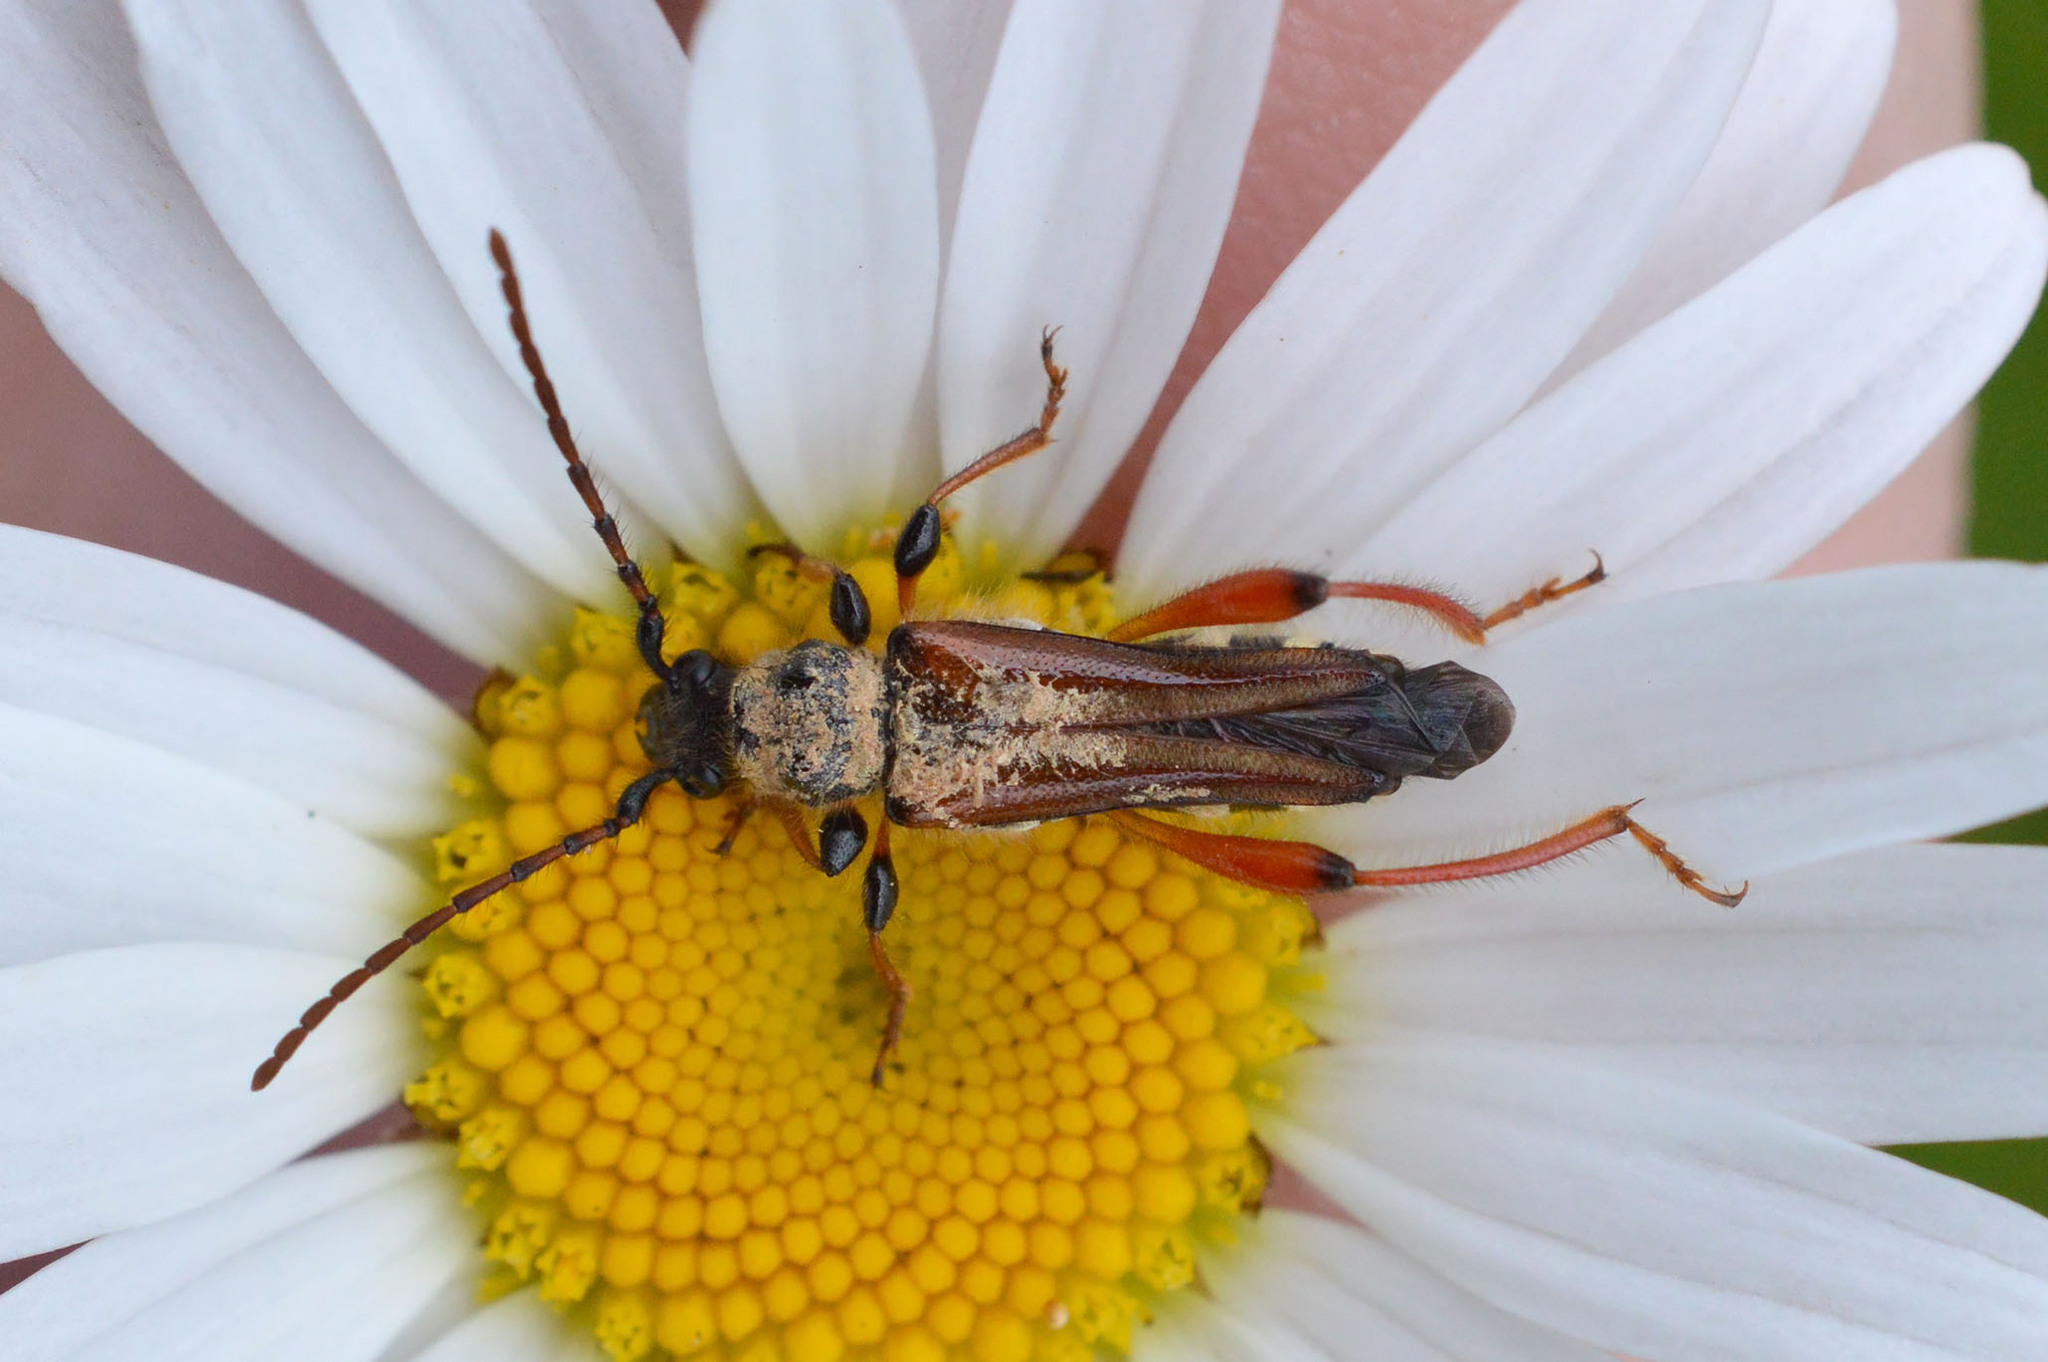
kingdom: Animalia
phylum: Arthropoda
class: Insecta
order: Coleoptera
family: Cerambycidae
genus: Stenopterus
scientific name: Stenopterus rufus
